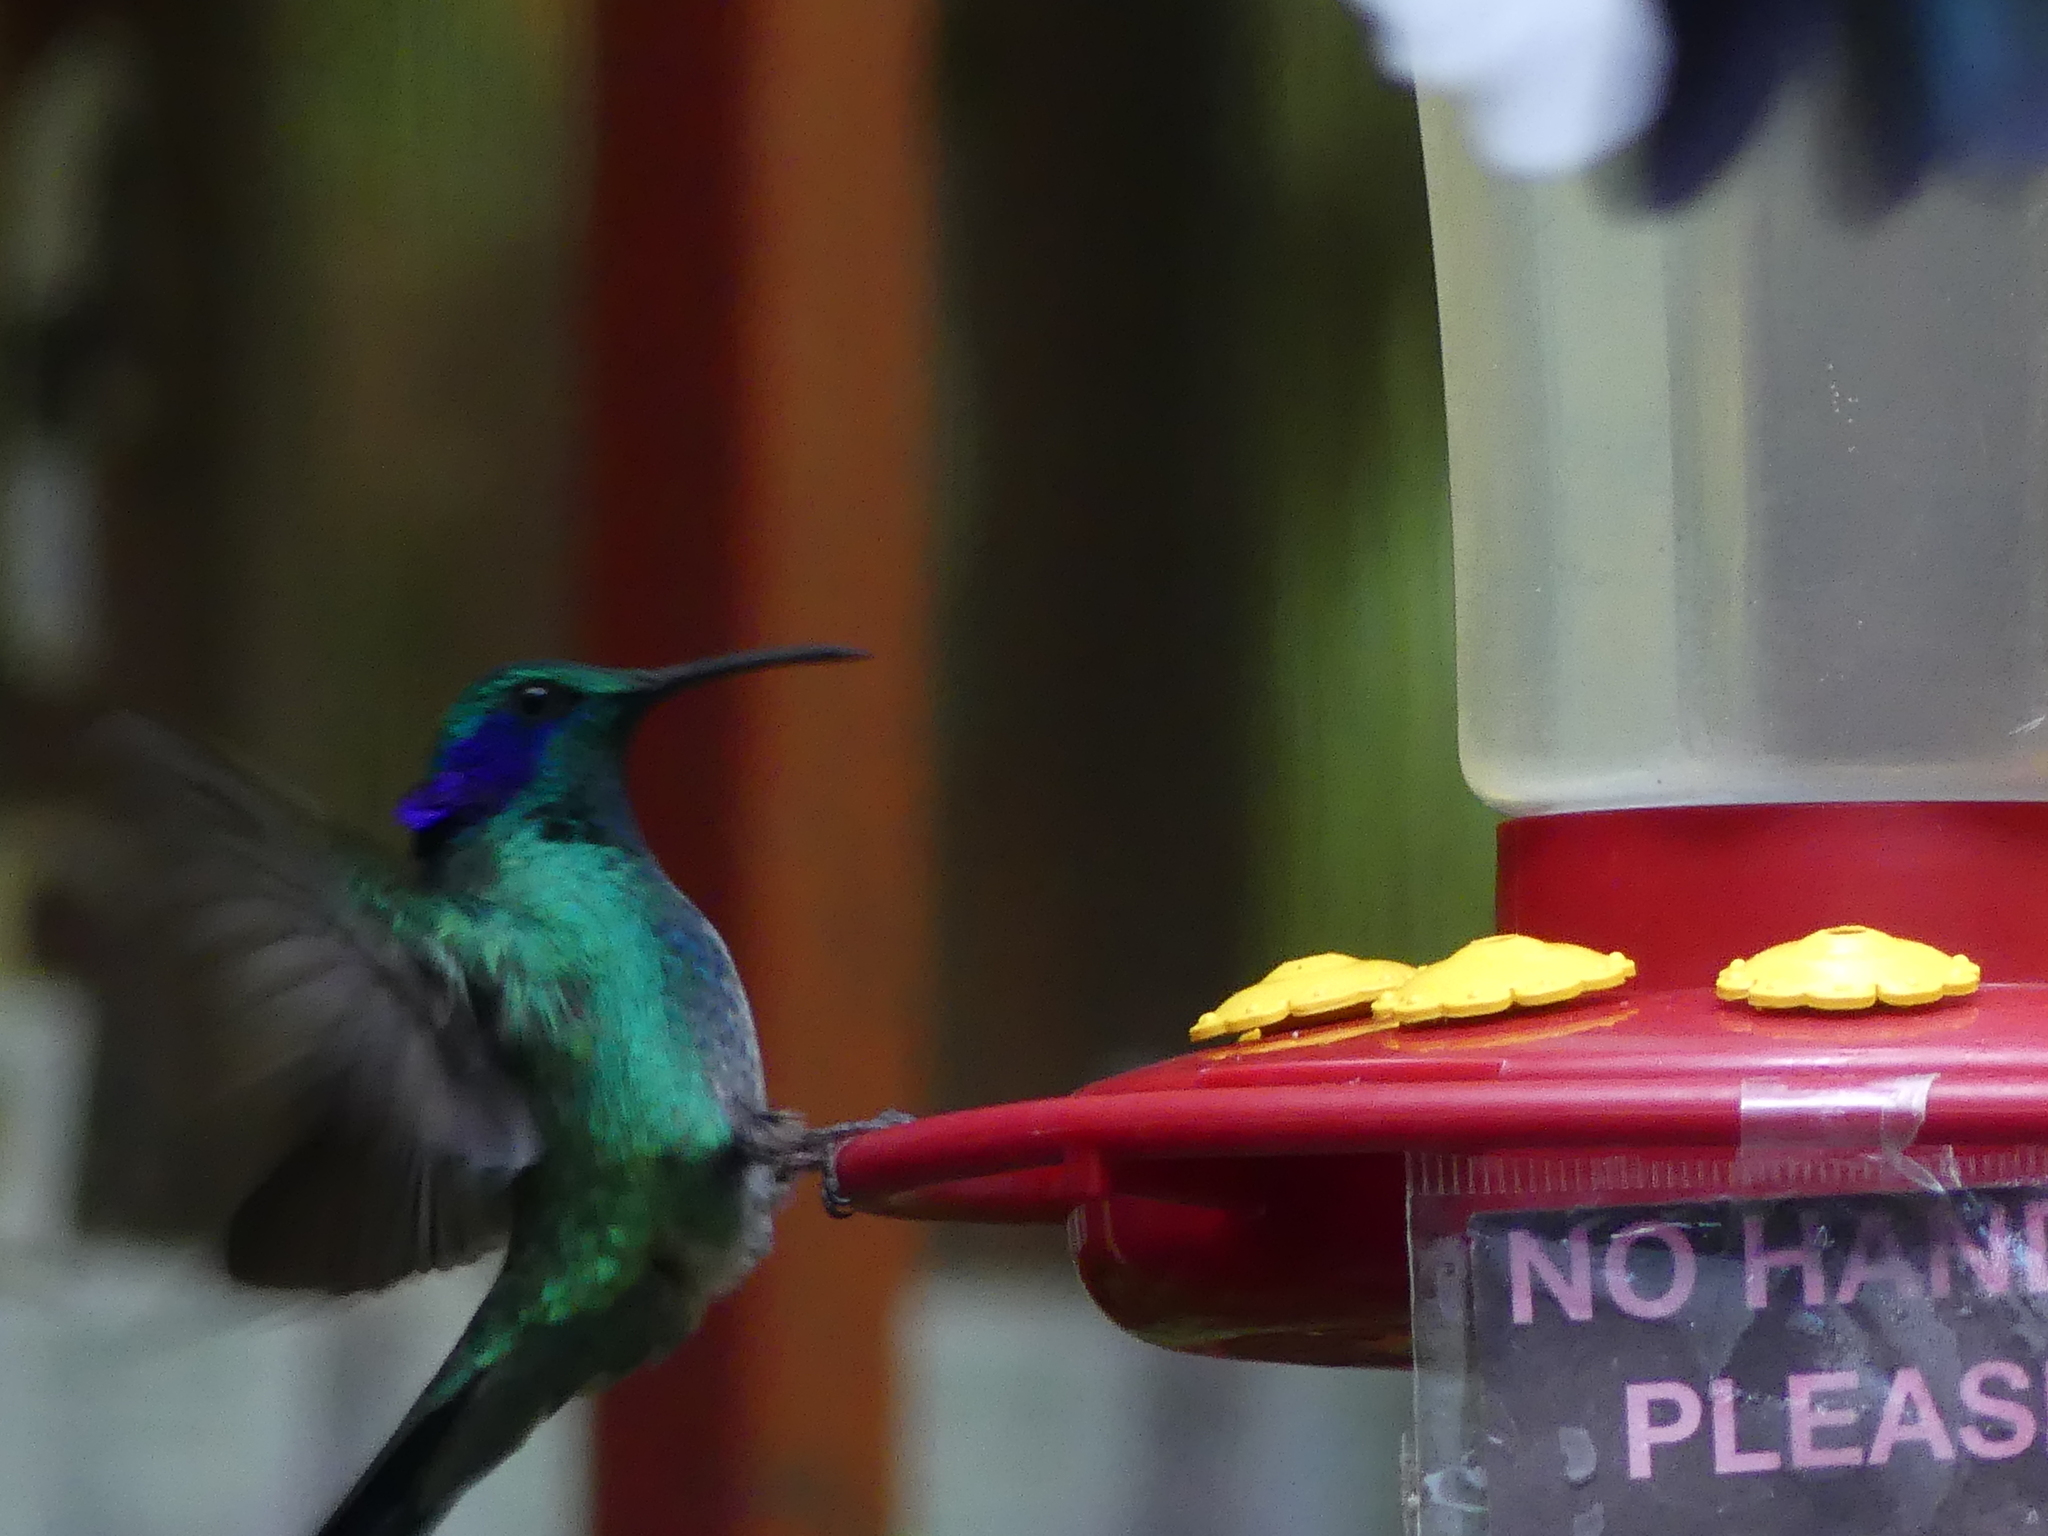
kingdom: Animalia
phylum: Chordata
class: Aves
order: Apodiformes
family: Trochilidae
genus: Colibri
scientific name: Colibri cyanotus
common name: Lesser violetear
